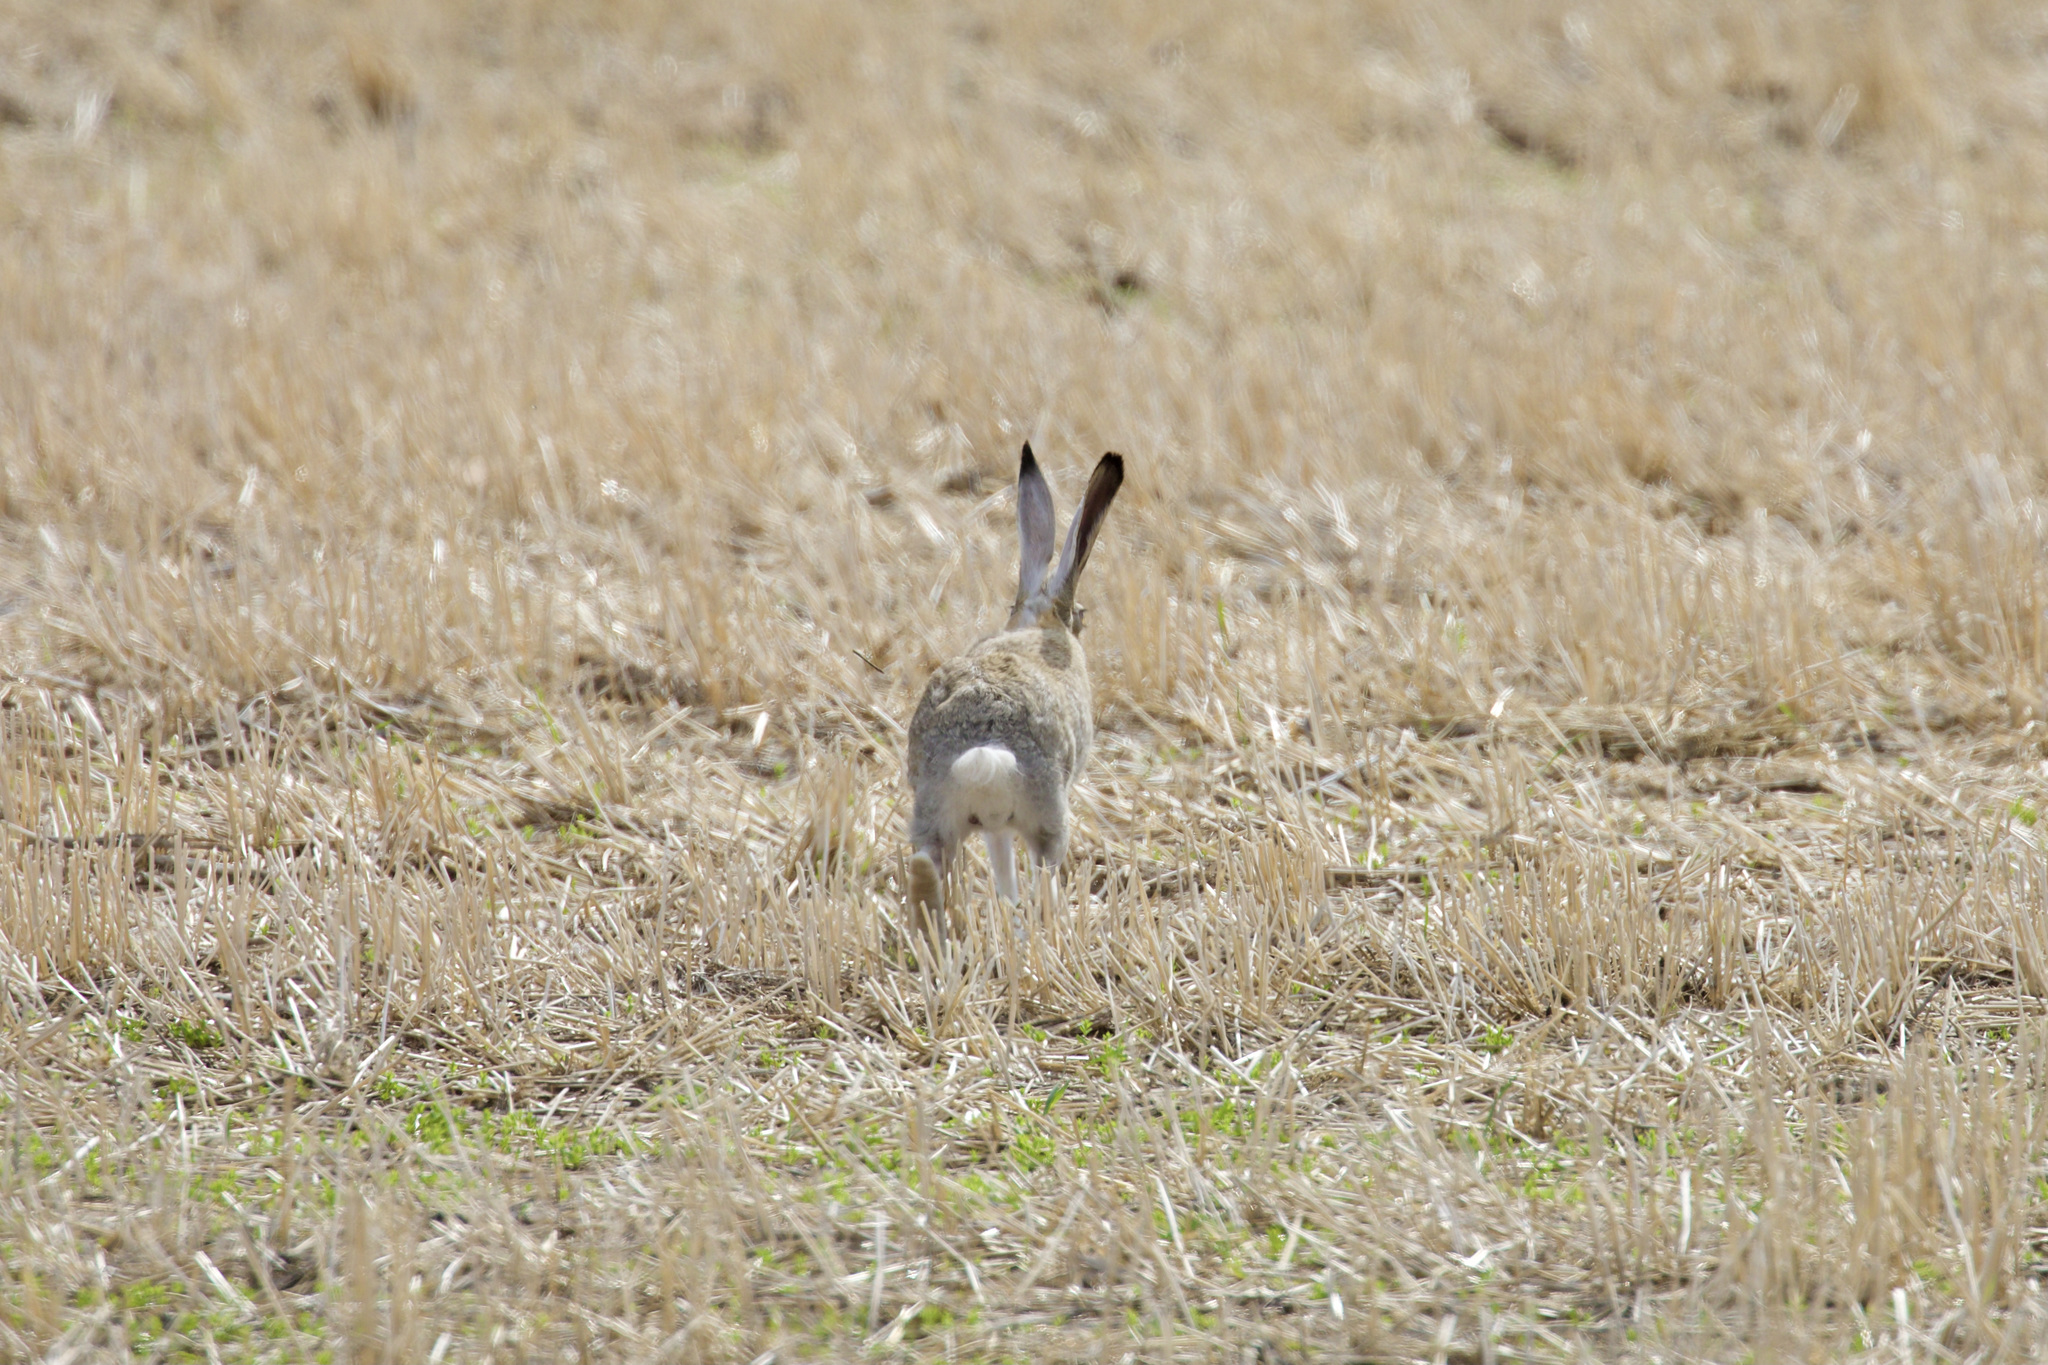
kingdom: Animalia
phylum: Chordata
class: Mammalia
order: Lagomorpha
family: Leporidae
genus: Lepus
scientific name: Lepus townsendii
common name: White-tailed jackrabbit
